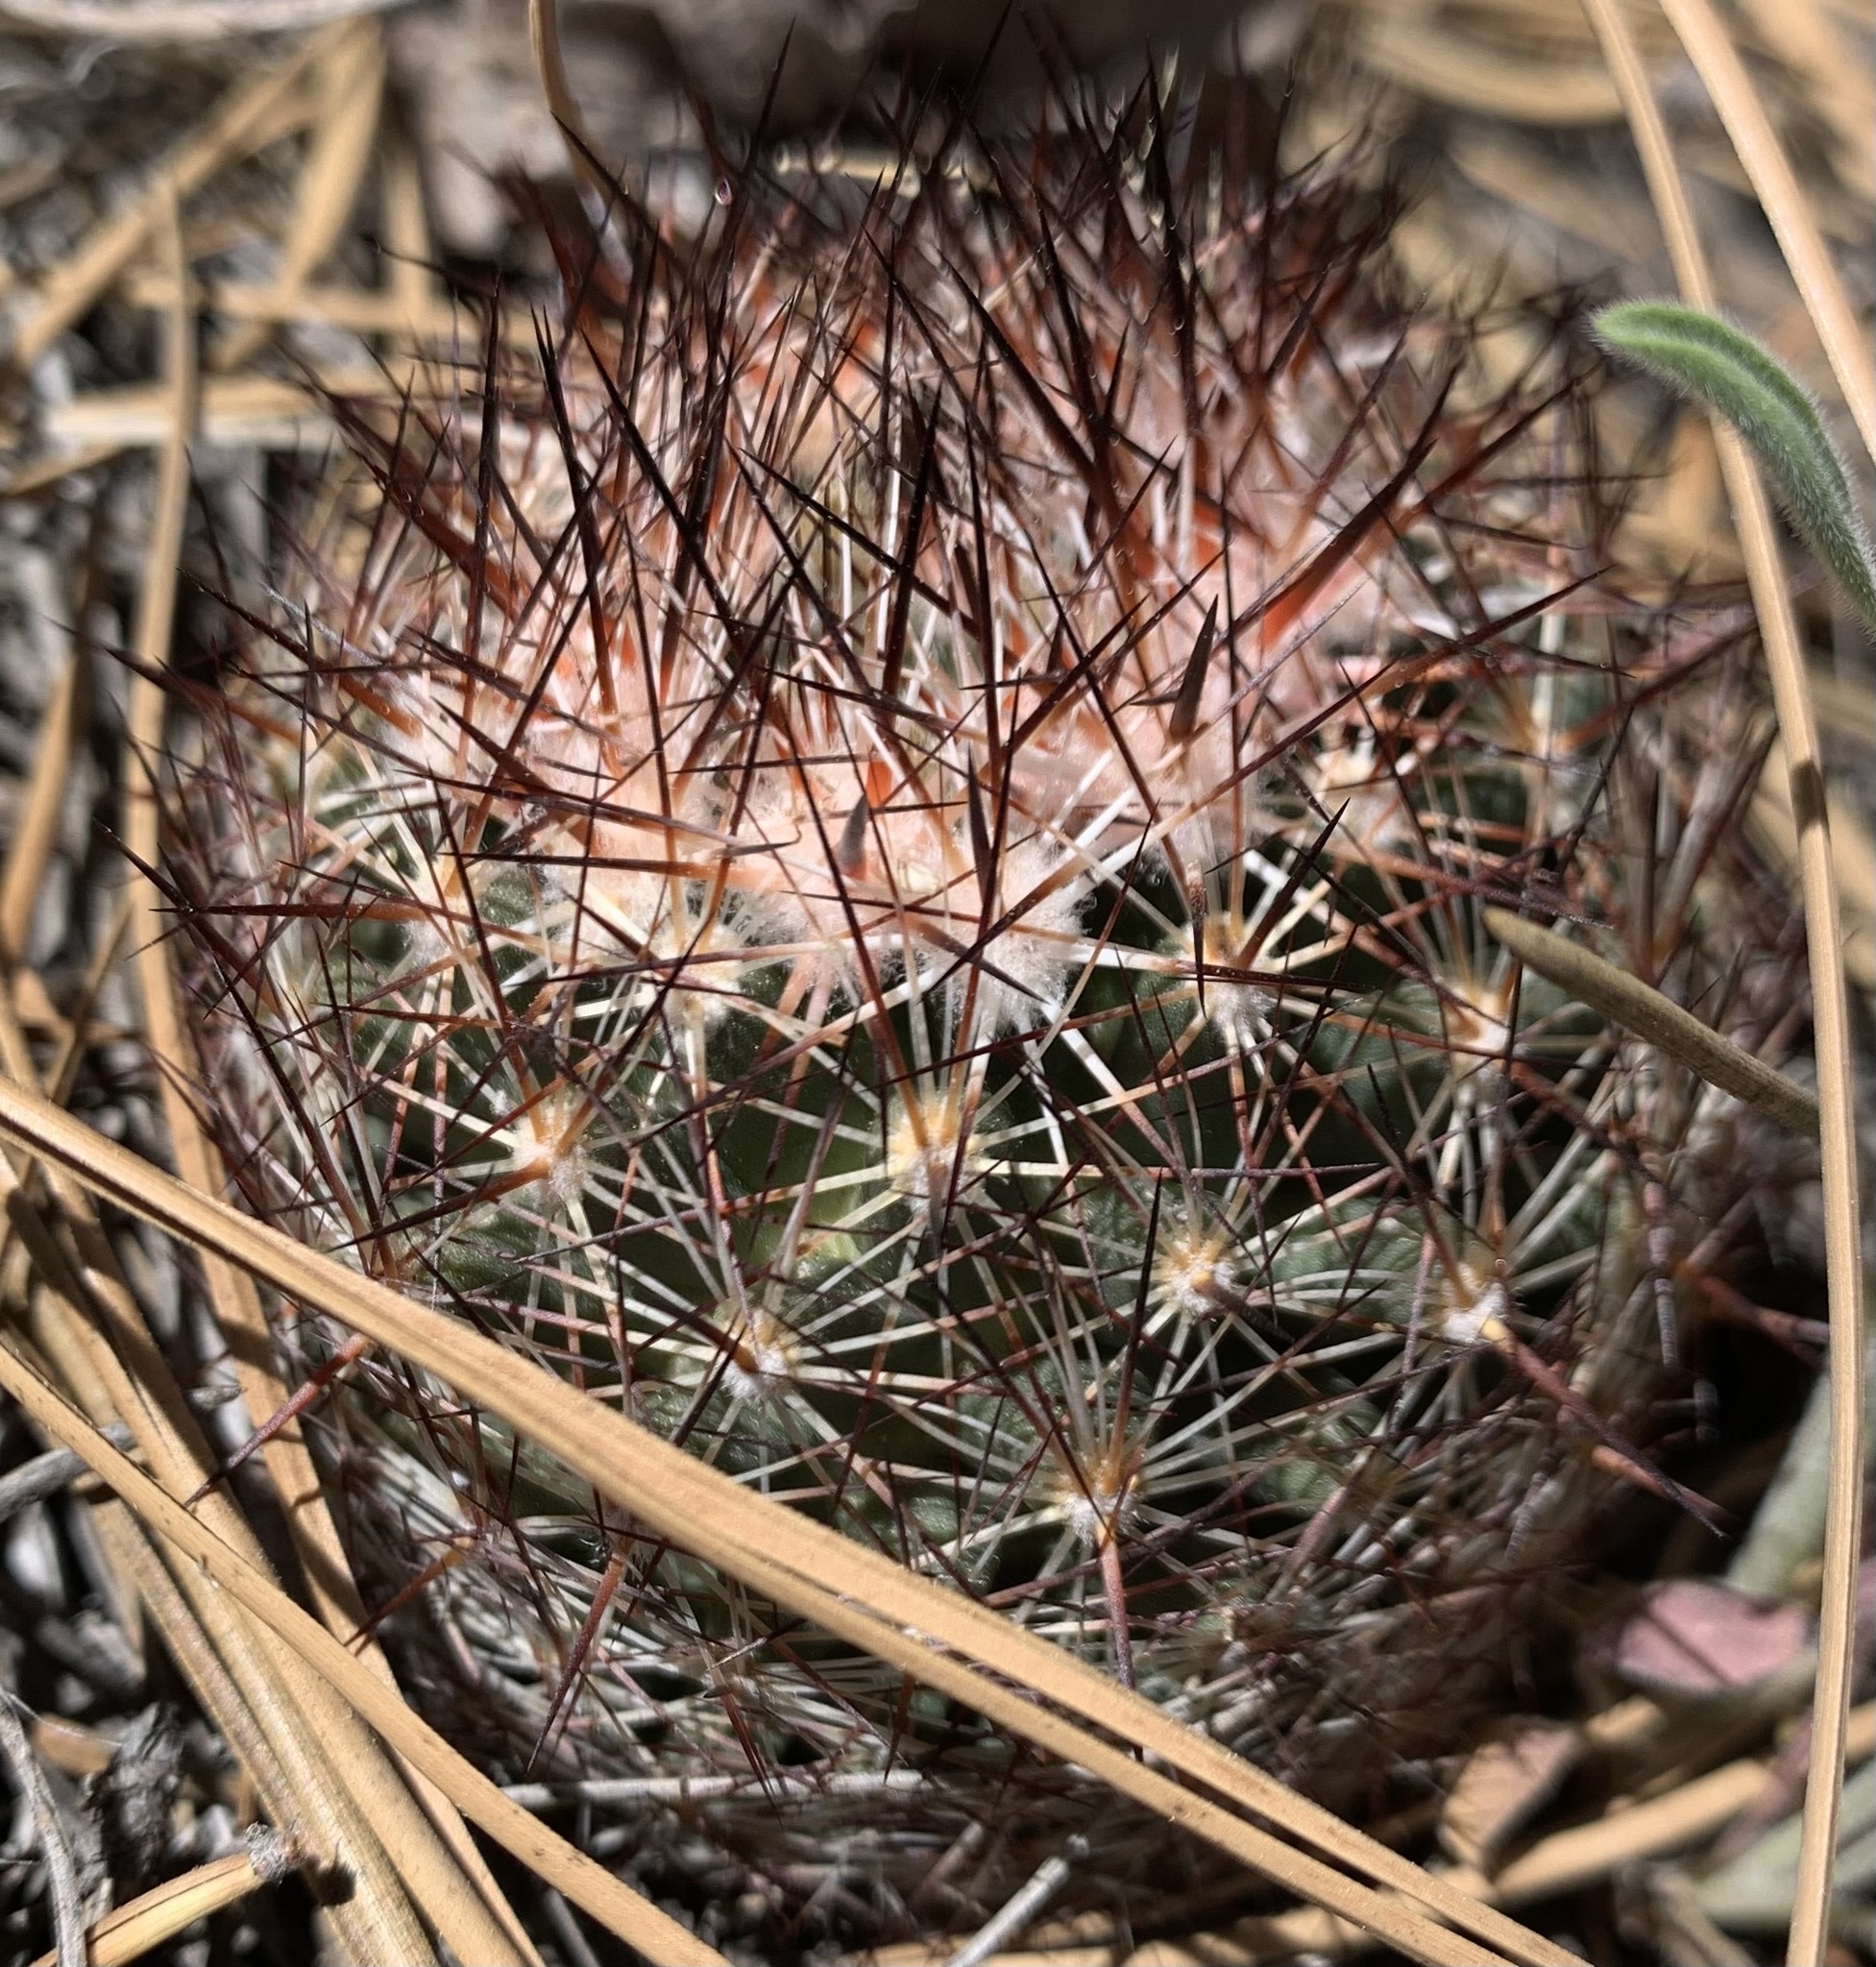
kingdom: Plantae
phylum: Tracheophyta
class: Magnoliopsida
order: Caryophyllales
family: Cactaceae
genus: Pelecyphora
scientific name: Pelecyphora vivipara
